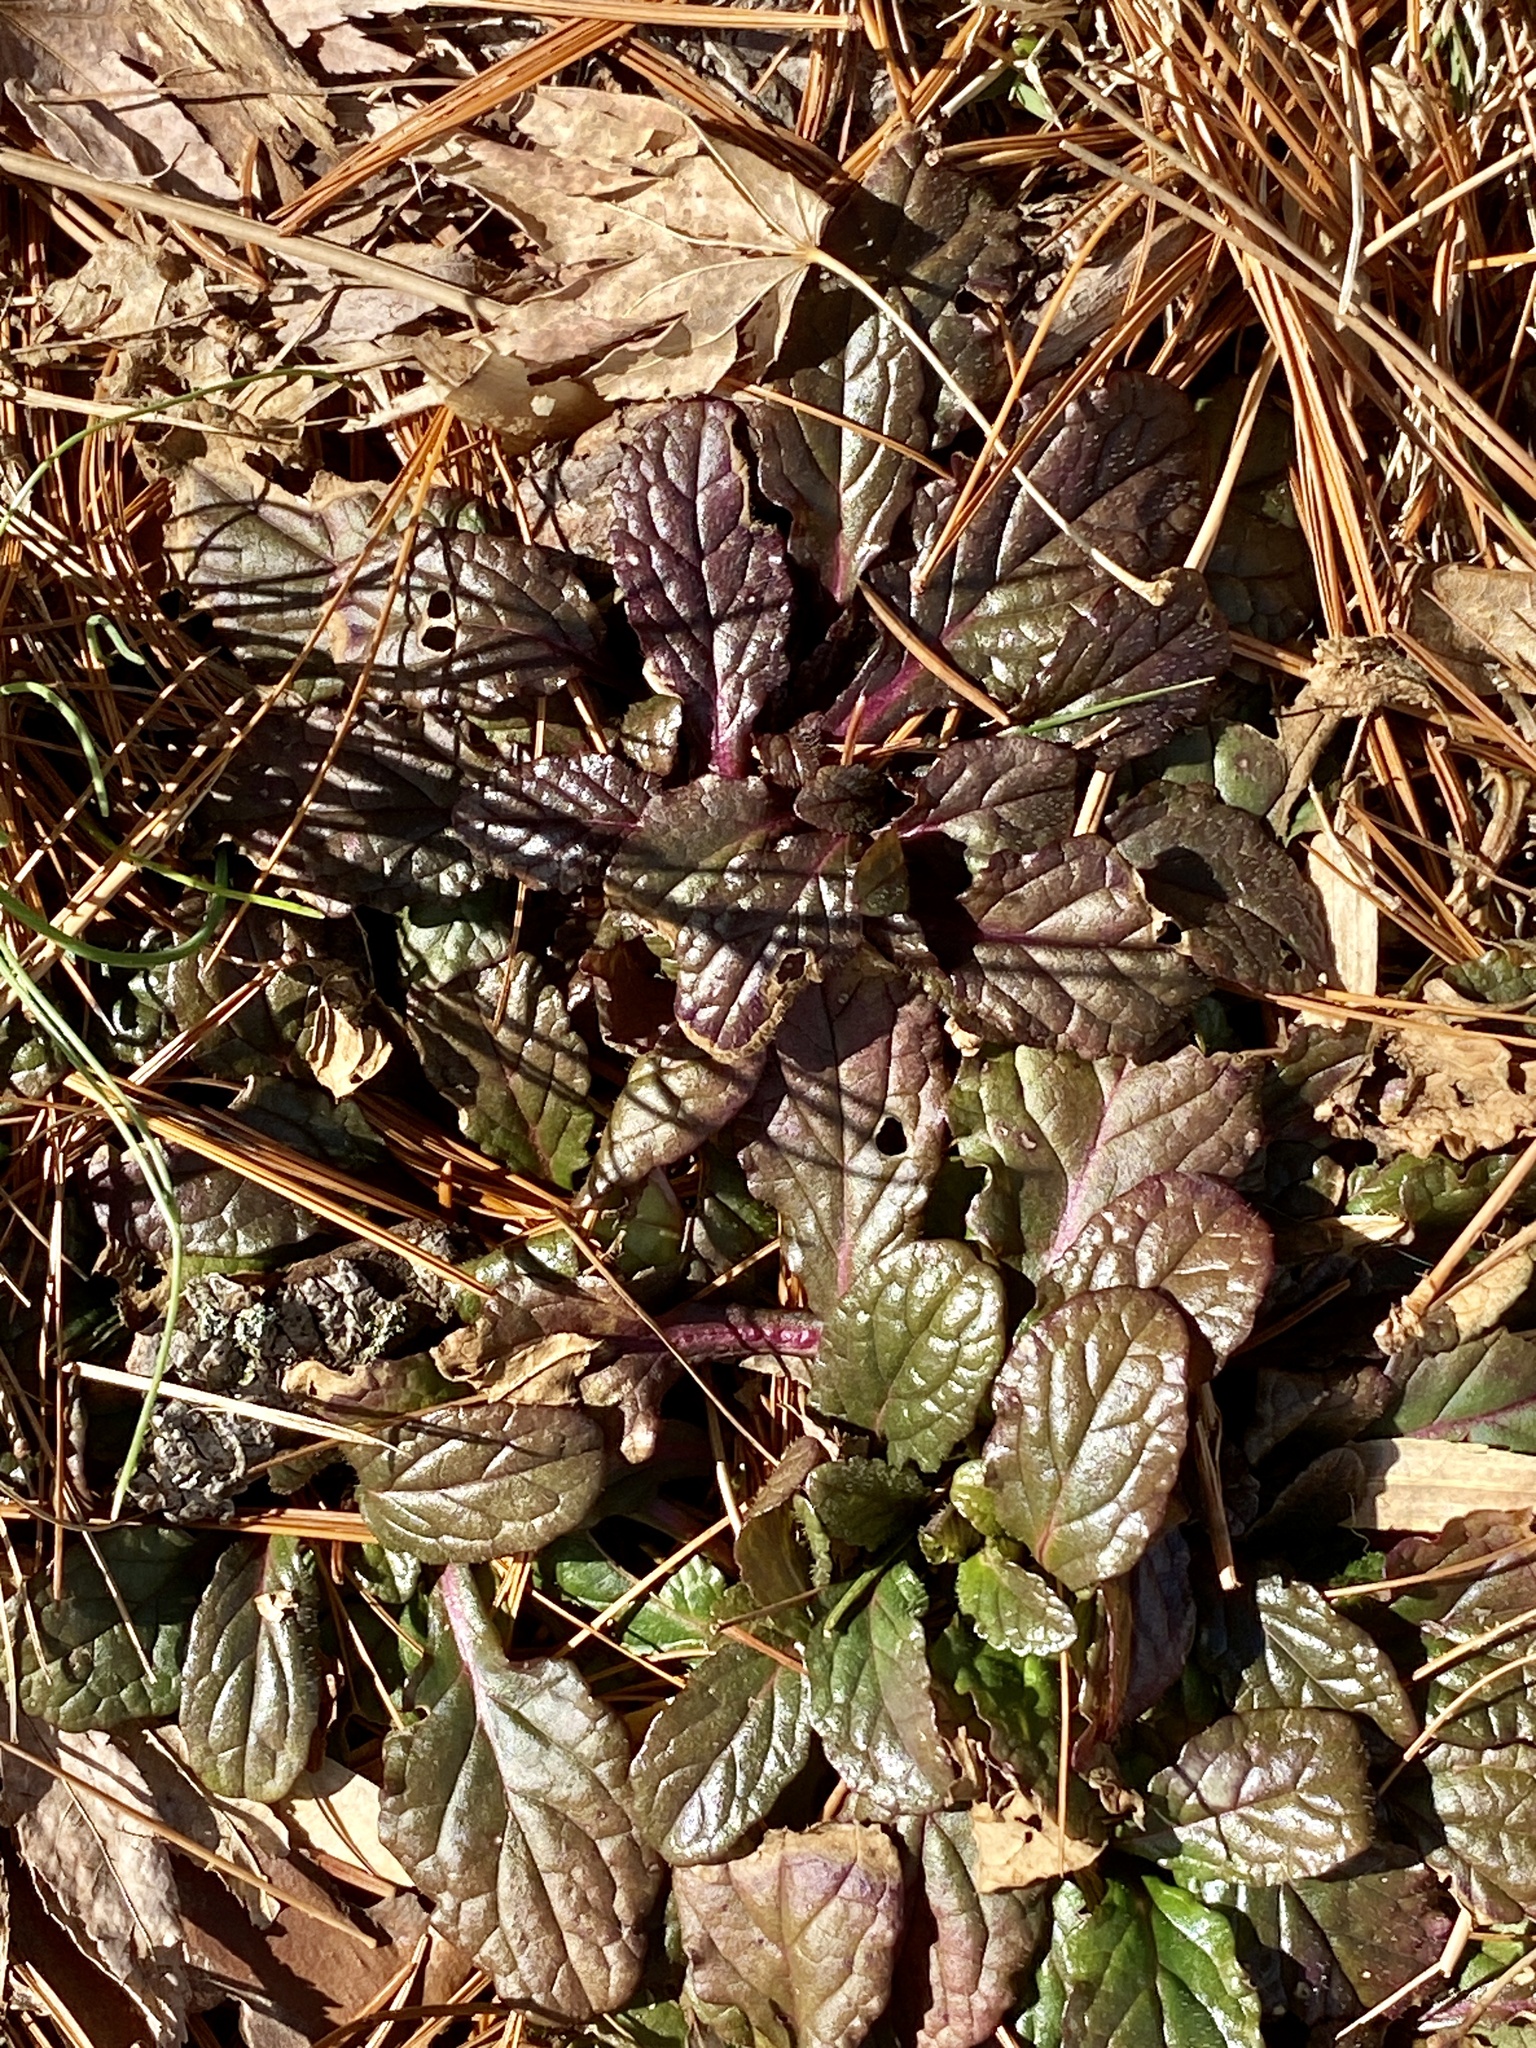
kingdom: Plantae
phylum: Tracheophyta
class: Magnoliopsida
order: Lamiales
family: Lamiaceae
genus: Ajuga
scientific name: Ajuga reptans
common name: Bugle
